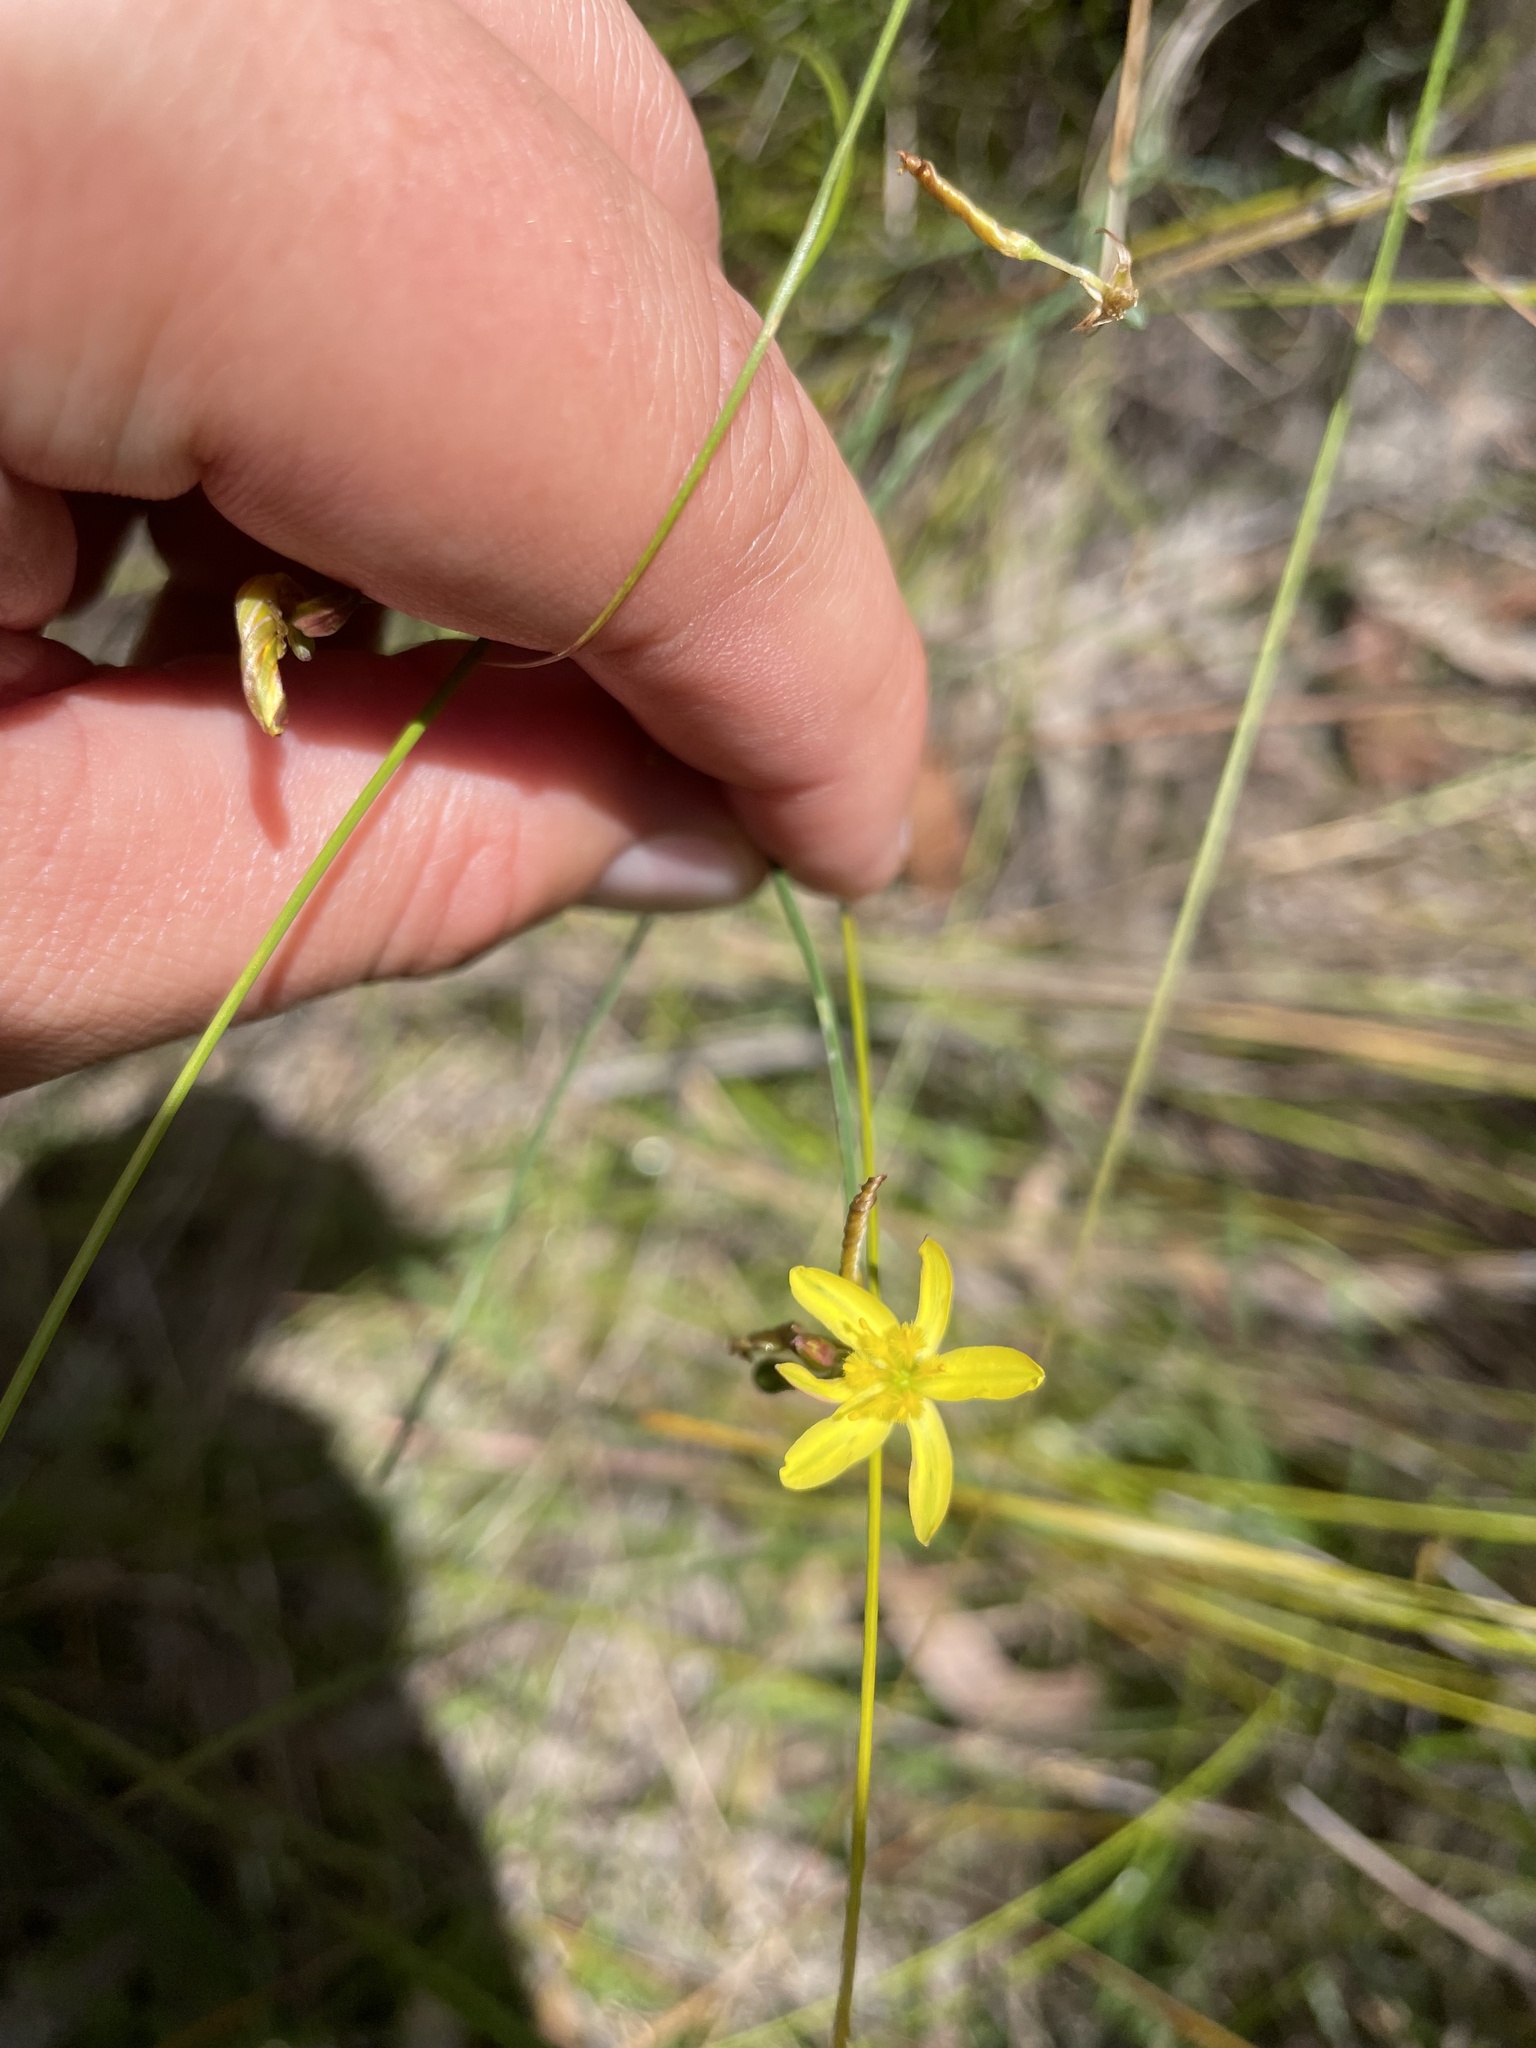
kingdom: Plantae
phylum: Tracheophyta
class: Liliopsida
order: Asparagales
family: Asphodelaceae
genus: Tricoryne
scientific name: Tricoryne elatior
